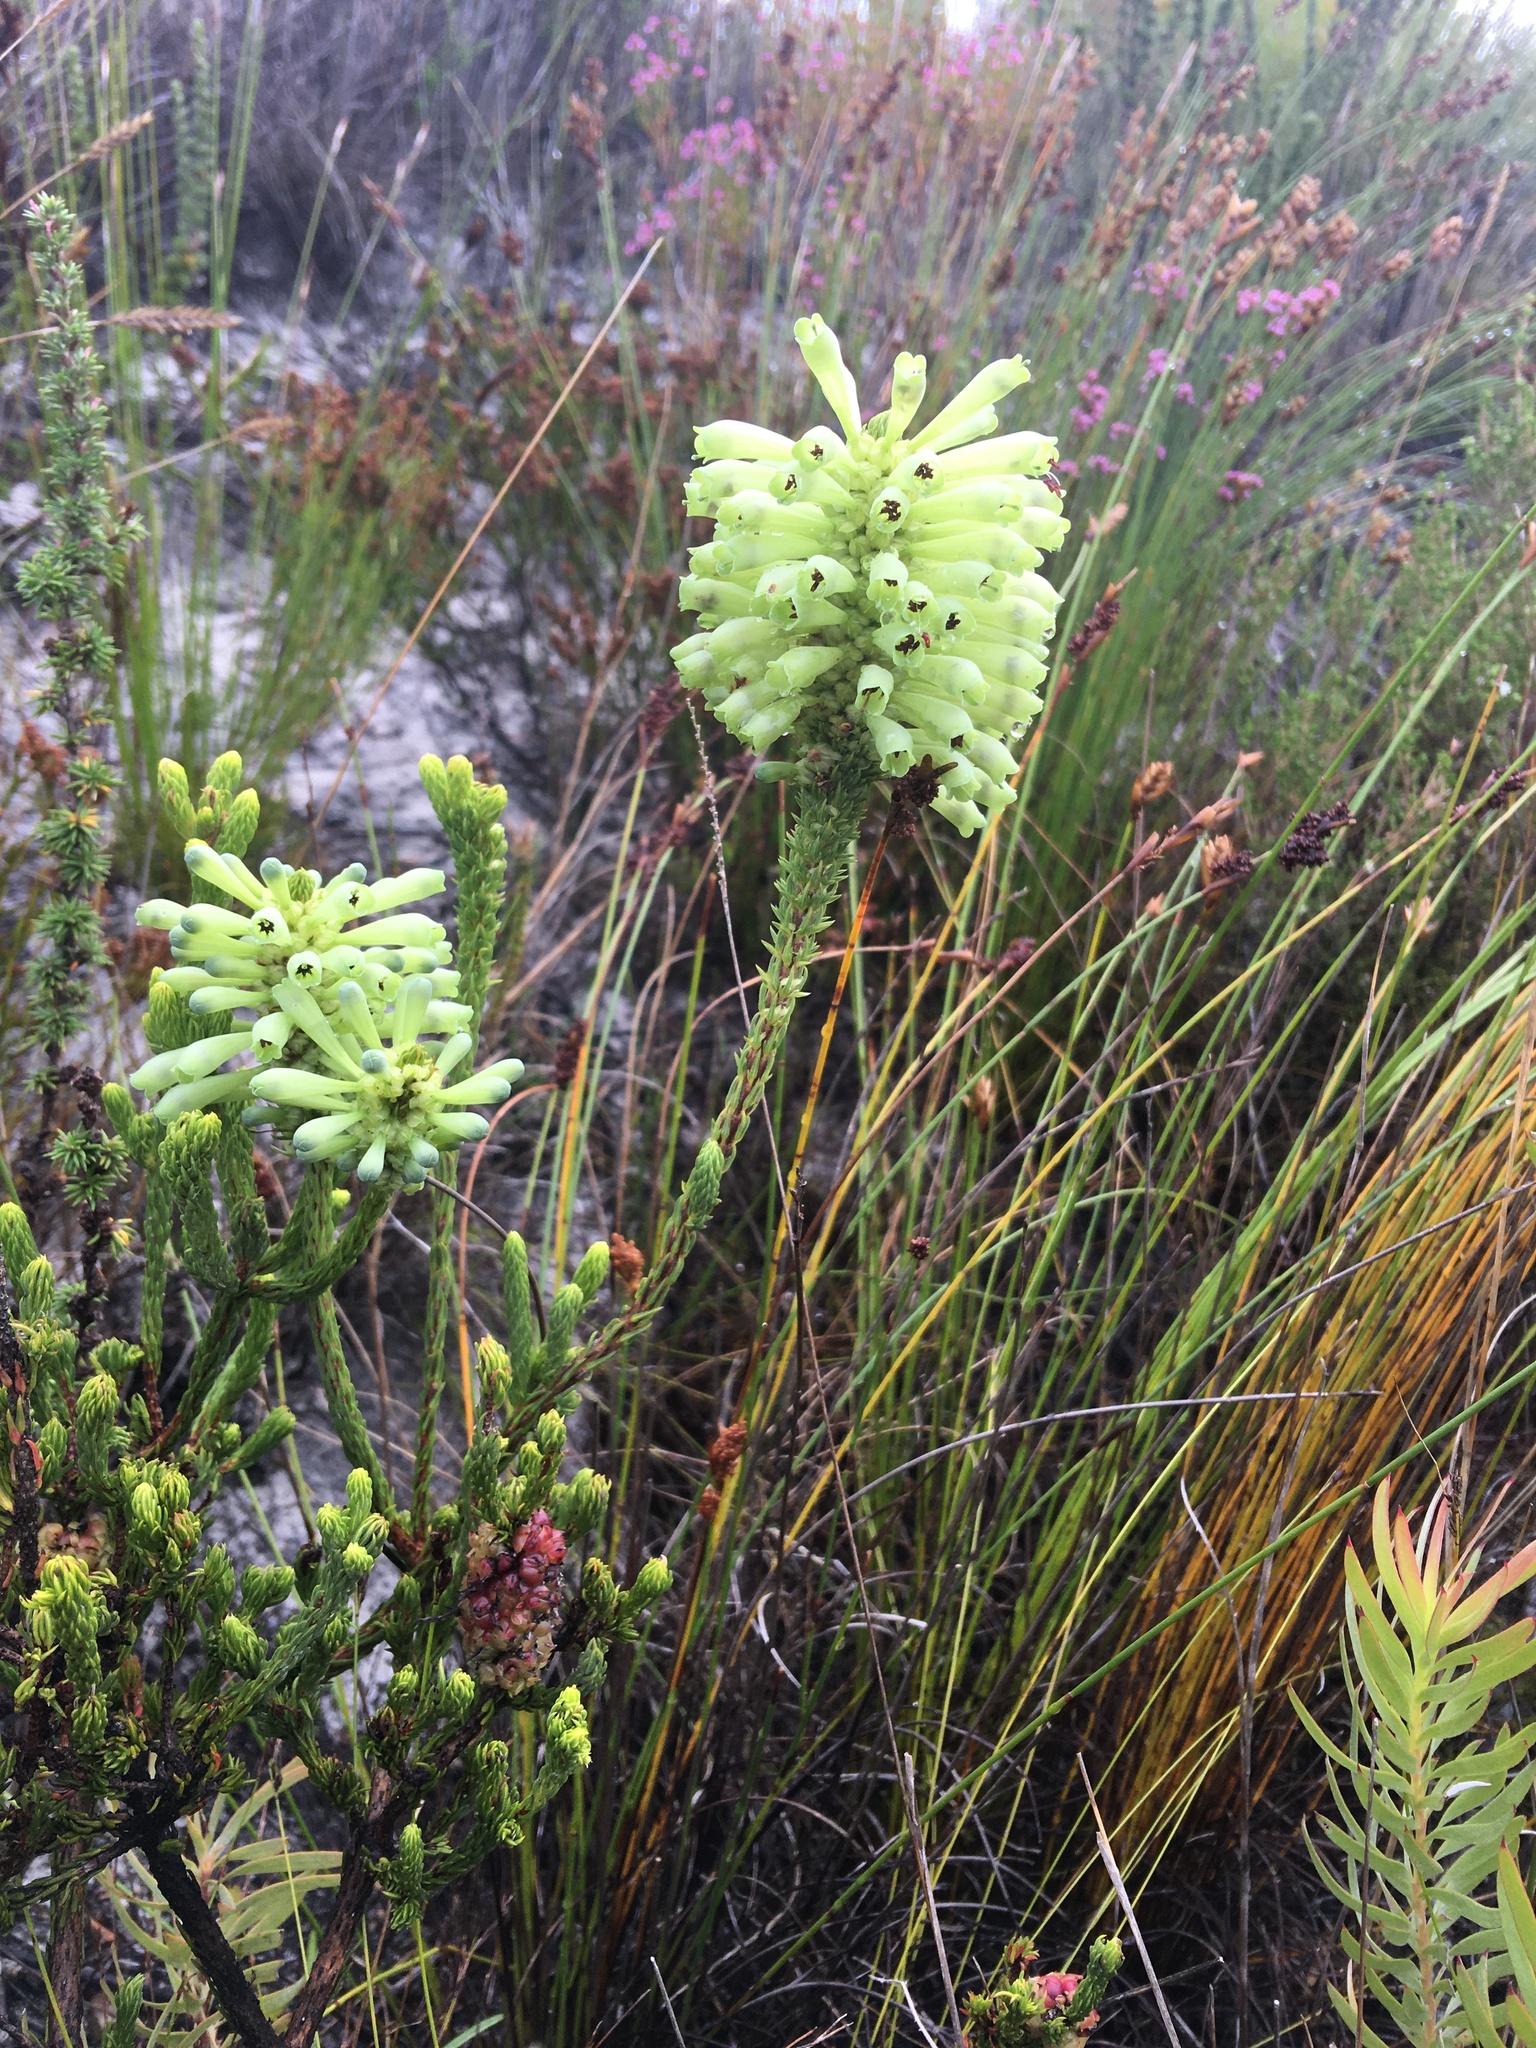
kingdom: Plantae
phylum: Tracheophyta
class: Magnoliopsida
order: Ericales
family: Ericaceae
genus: Erica
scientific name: Erica sessiliflora
